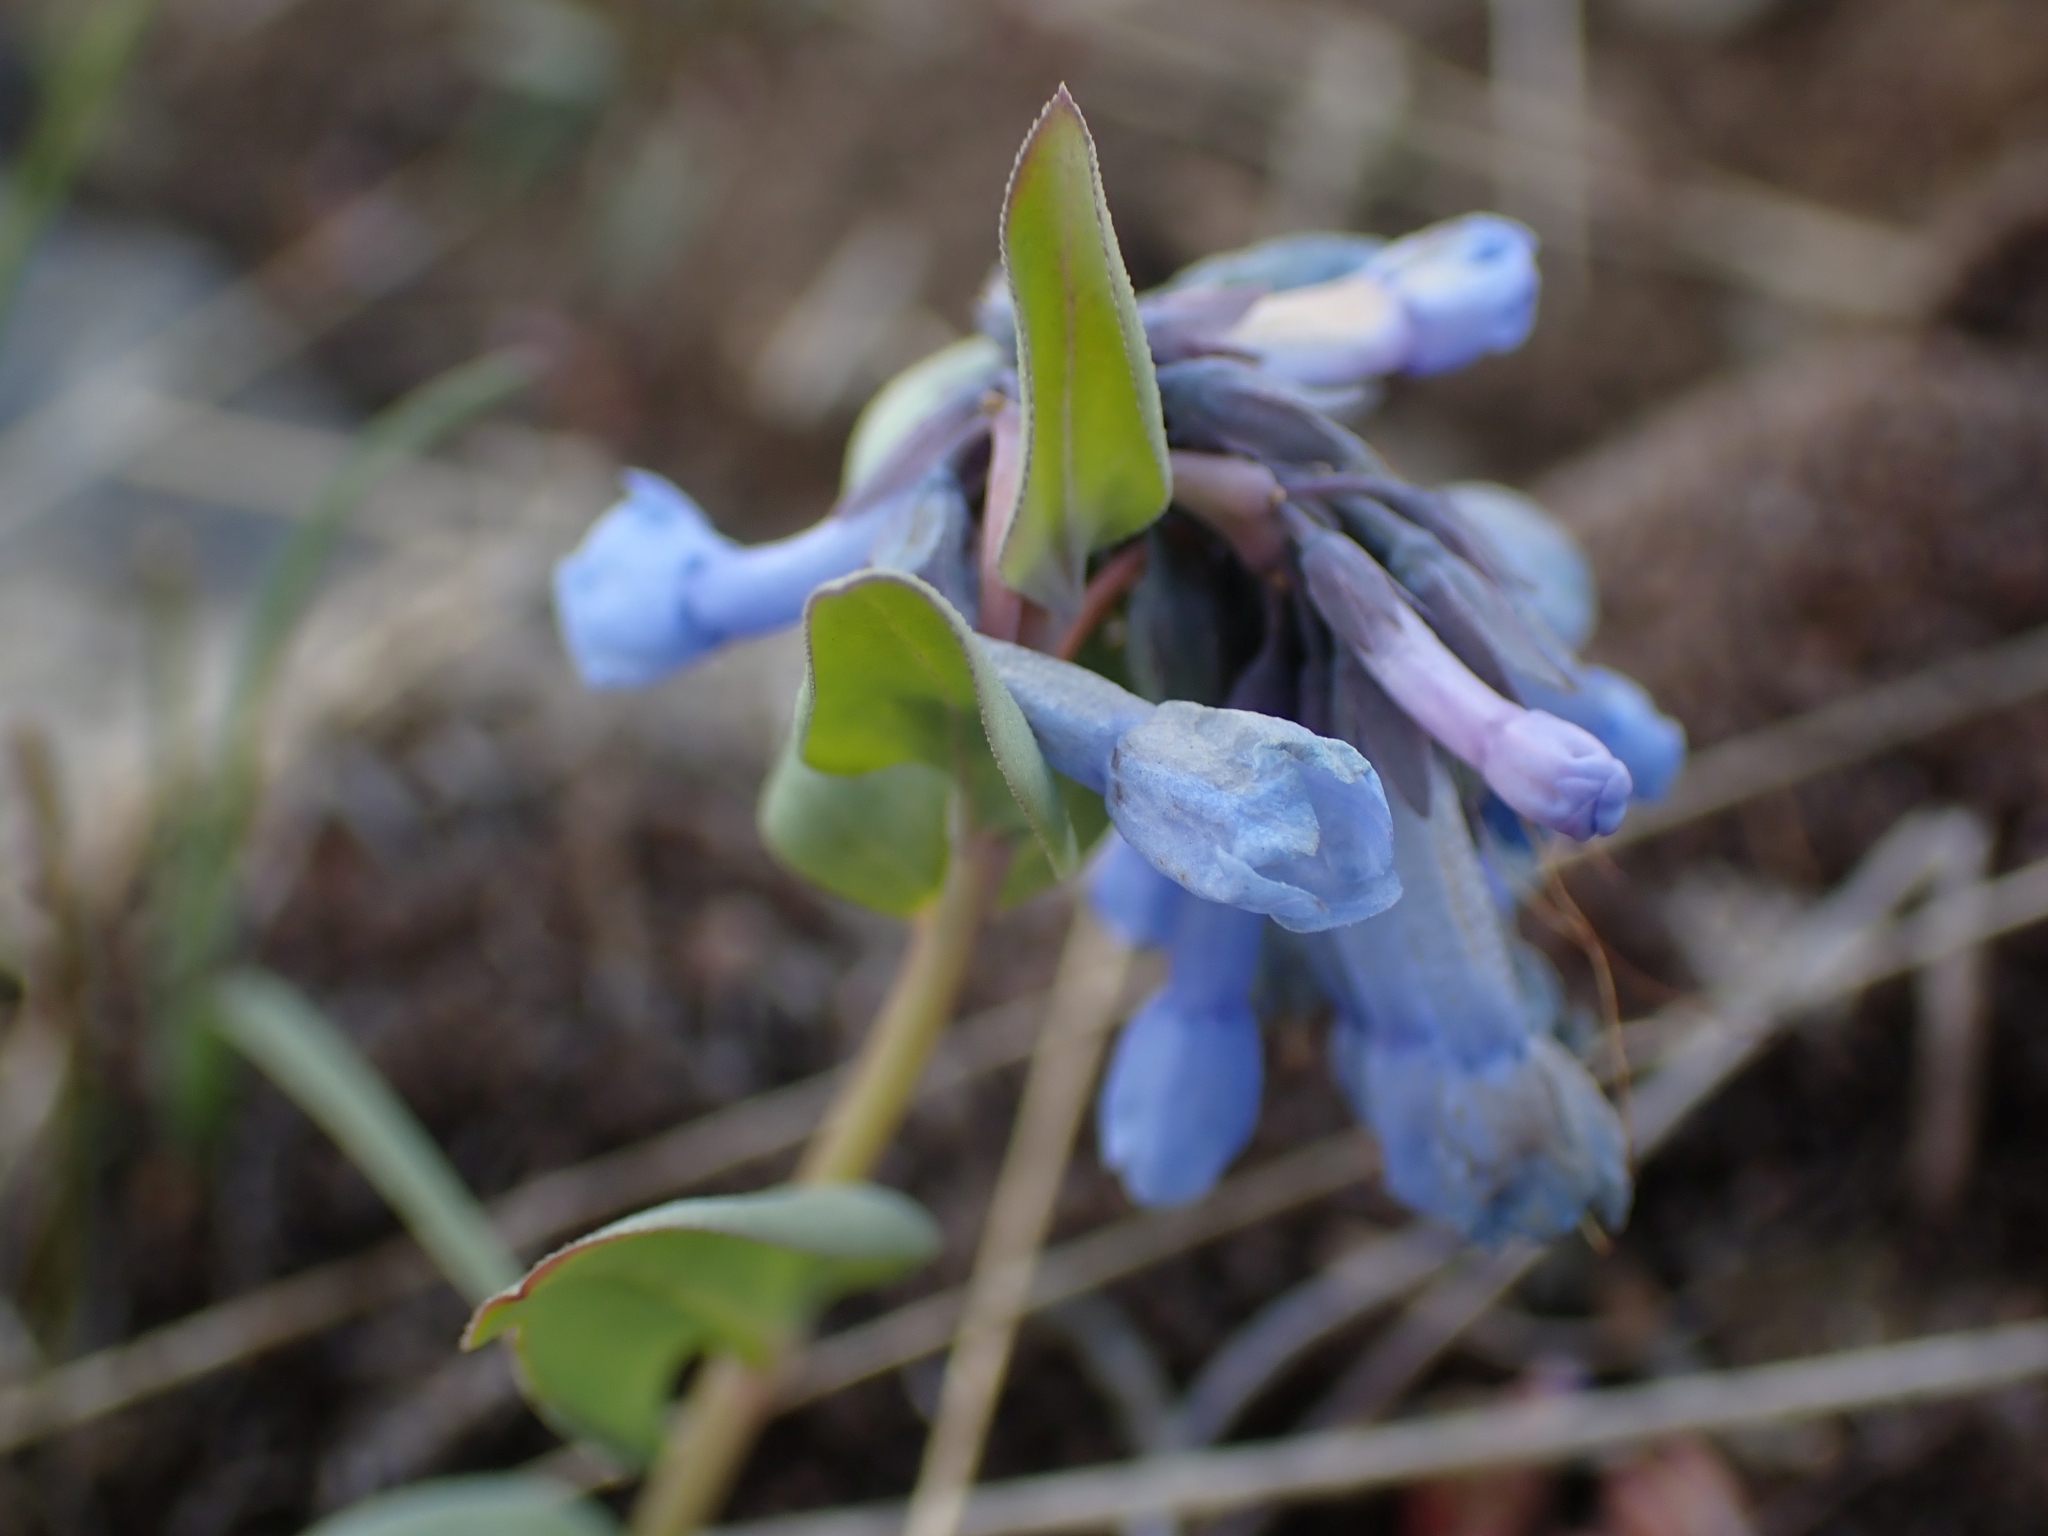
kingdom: Plantae
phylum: Tracheophyta
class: Magnoliopsida
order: Boraginales
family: Boraginaceae
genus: Mertensia
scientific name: Mertensia longiflora
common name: Large-flowered bluebells
